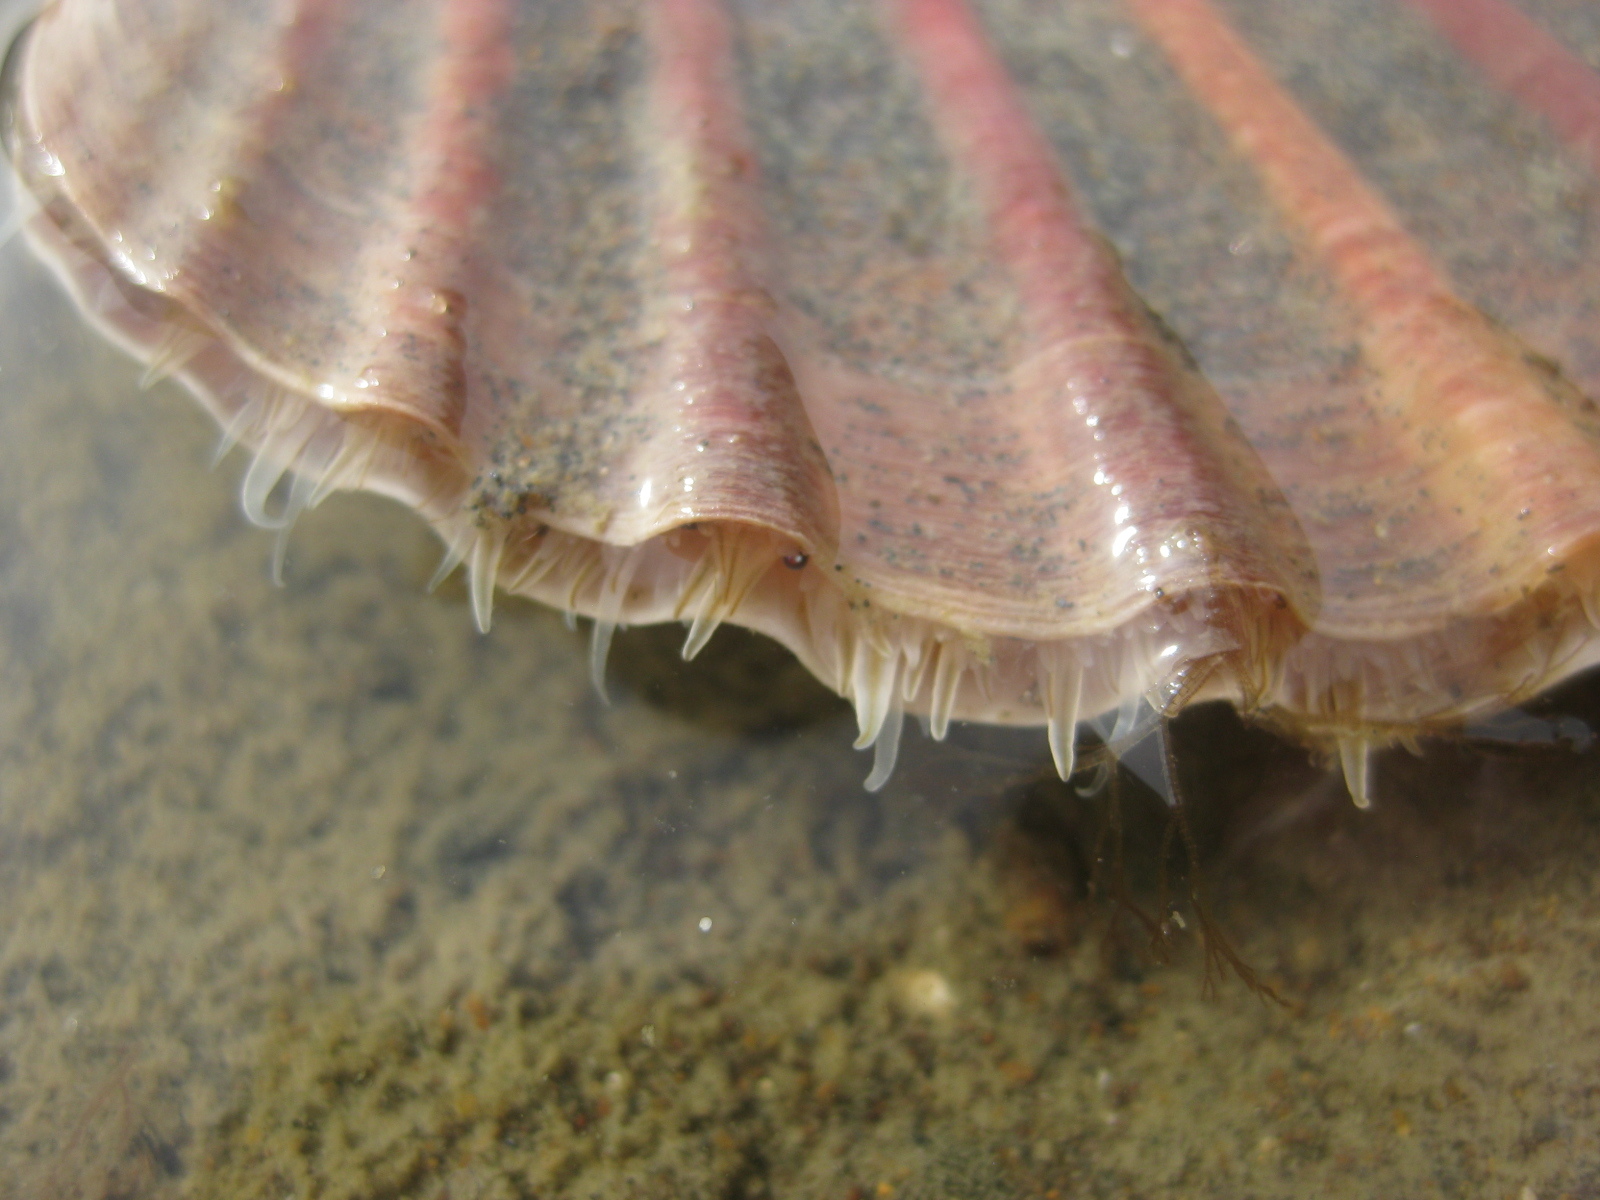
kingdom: Animalia
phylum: Mollusca
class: Bivalvia
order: Pectinida
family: Pectinidae
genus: Pecten
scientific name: Pecten novaezelandiae
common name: New zealand scallop
